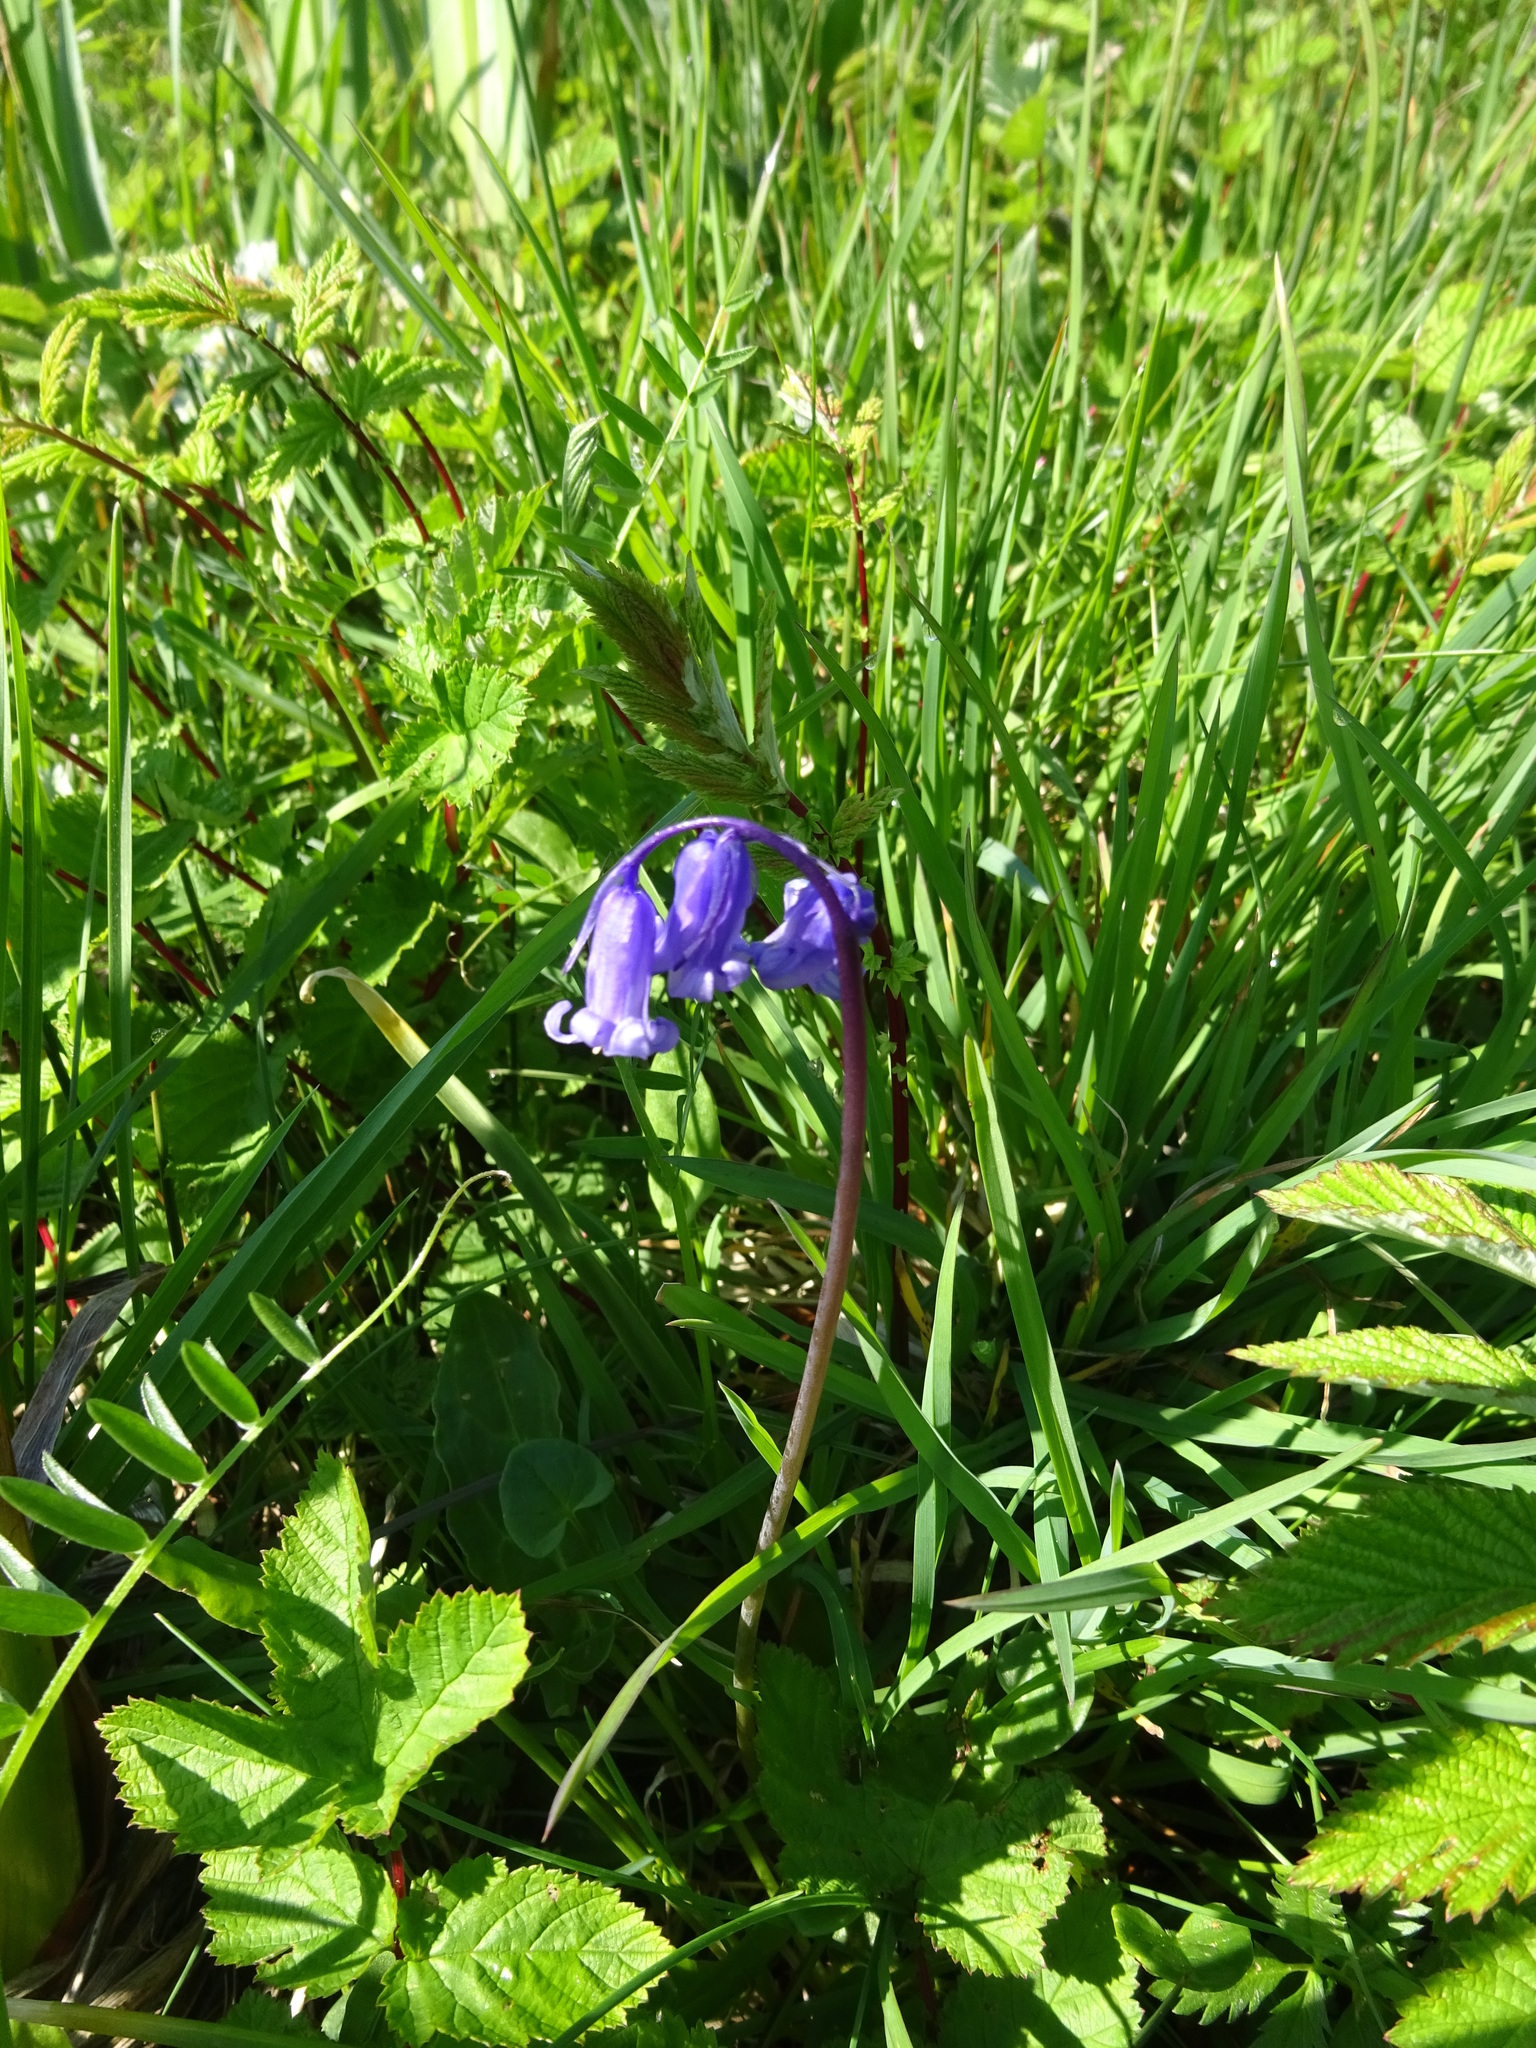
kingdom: Plantae
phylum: Tracheophyta
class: Liliopsida
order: Asparagales
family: Asparagaceae
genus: Hyacinthoides
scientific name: Hyacinthoides non-scripta
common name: Bluebell
